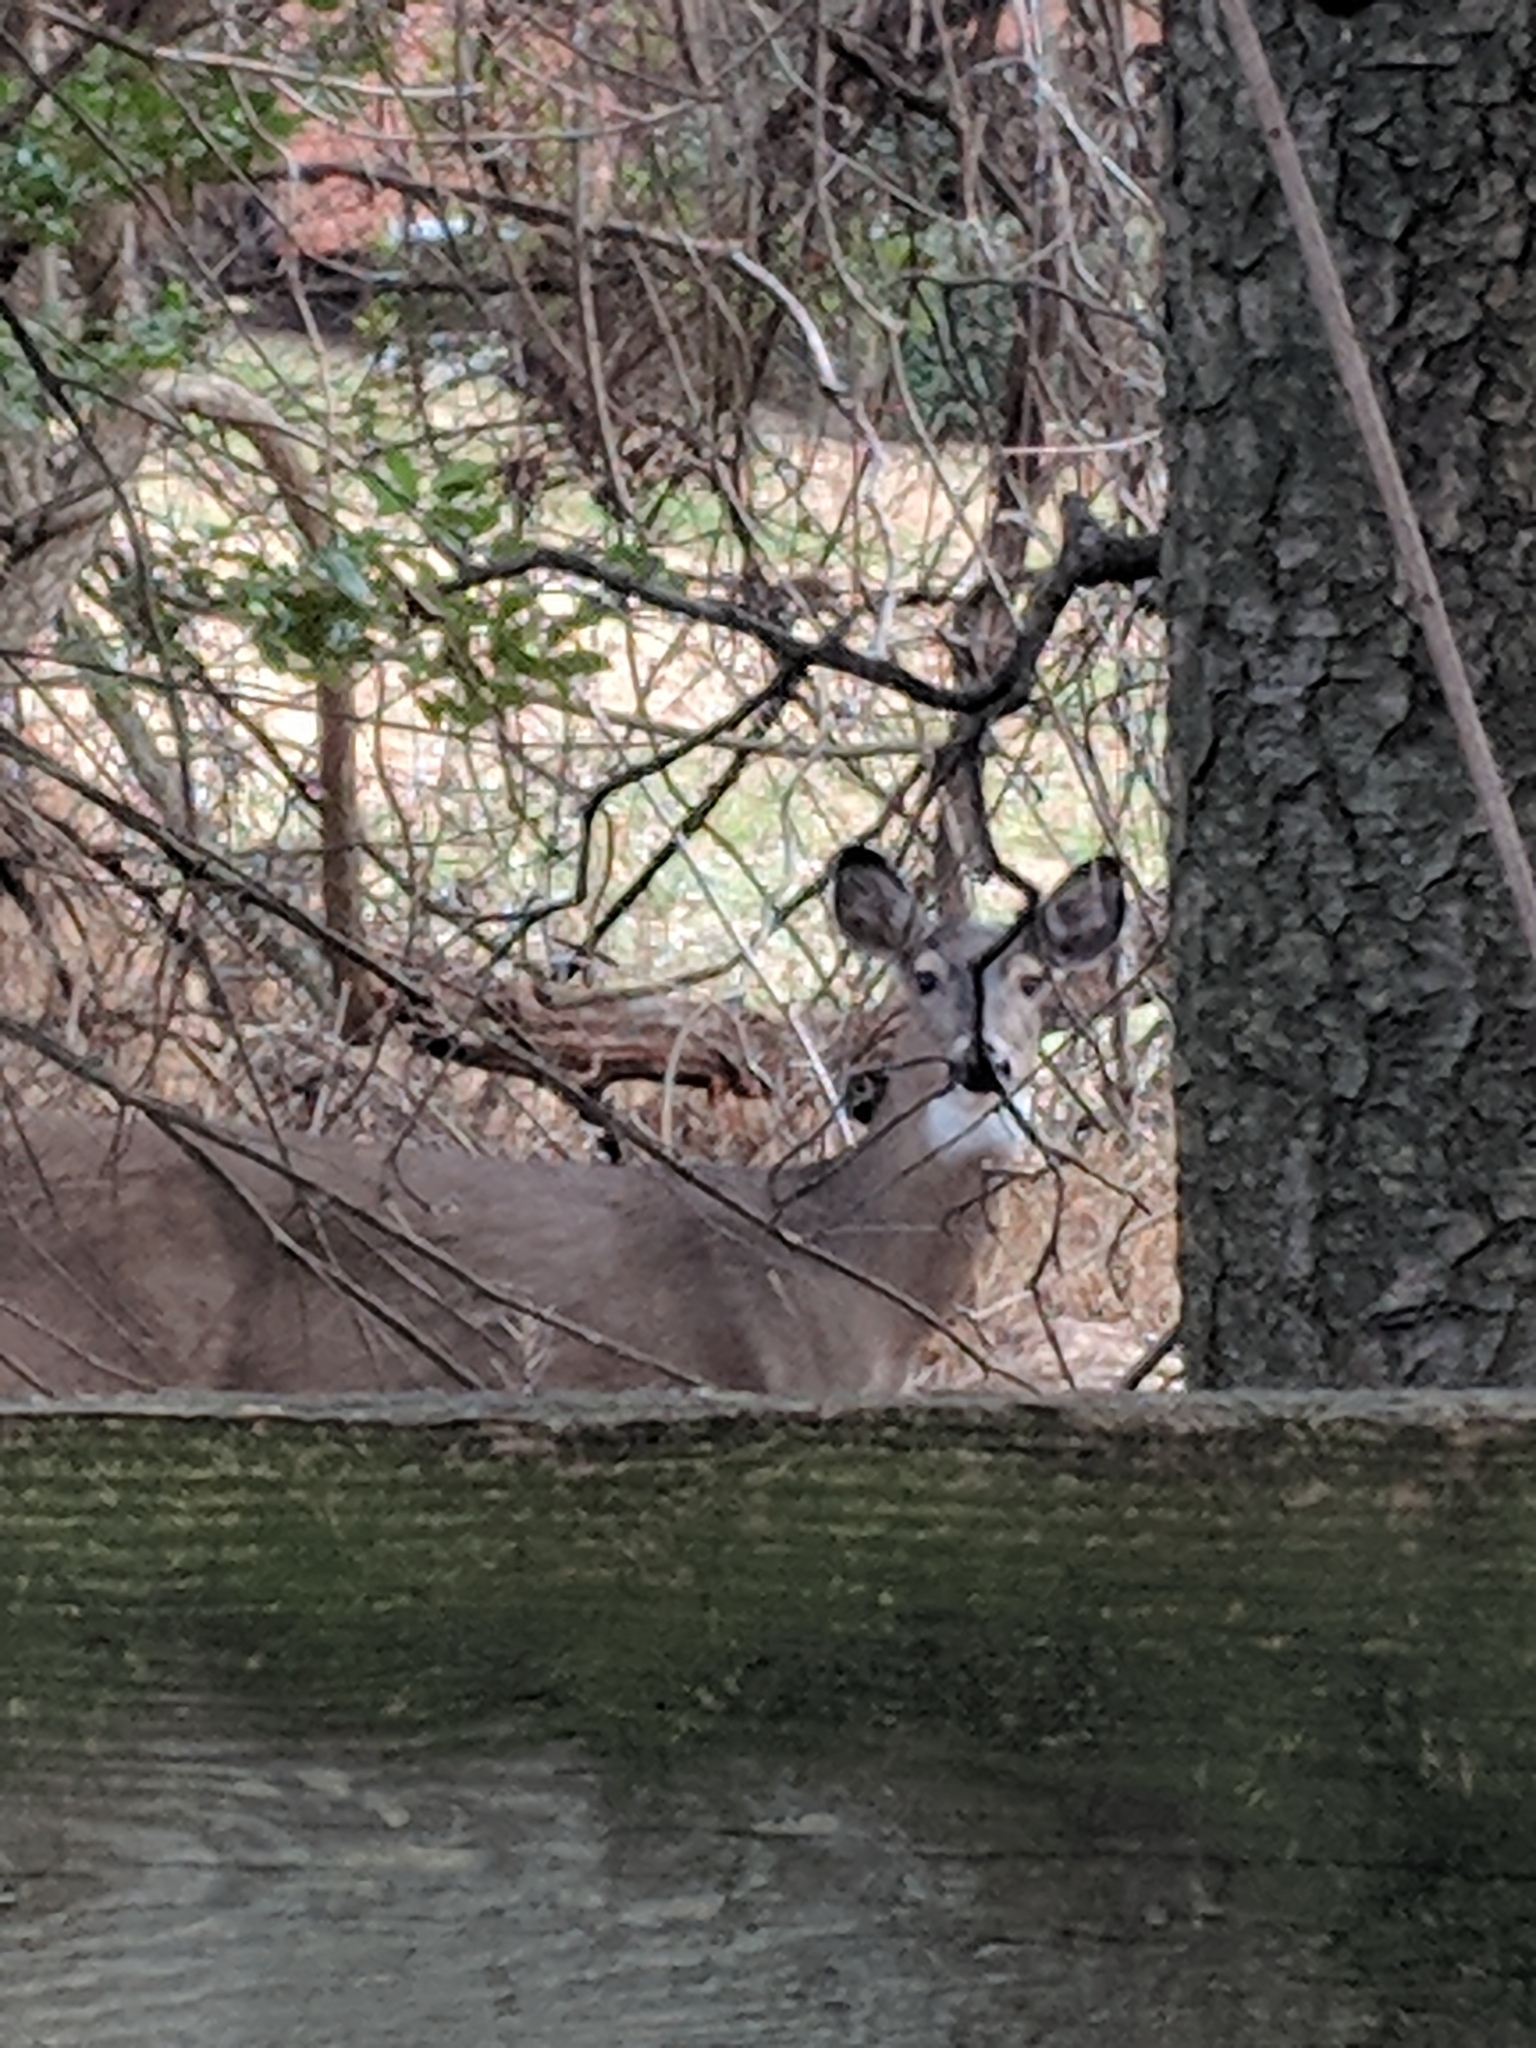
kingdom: Animalia
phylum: Chordata
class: Mammalia
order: Artiodactyla
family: Cervidae
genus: Odocoileus
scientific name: Odocoileus virginianus
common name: White-tailed deer
